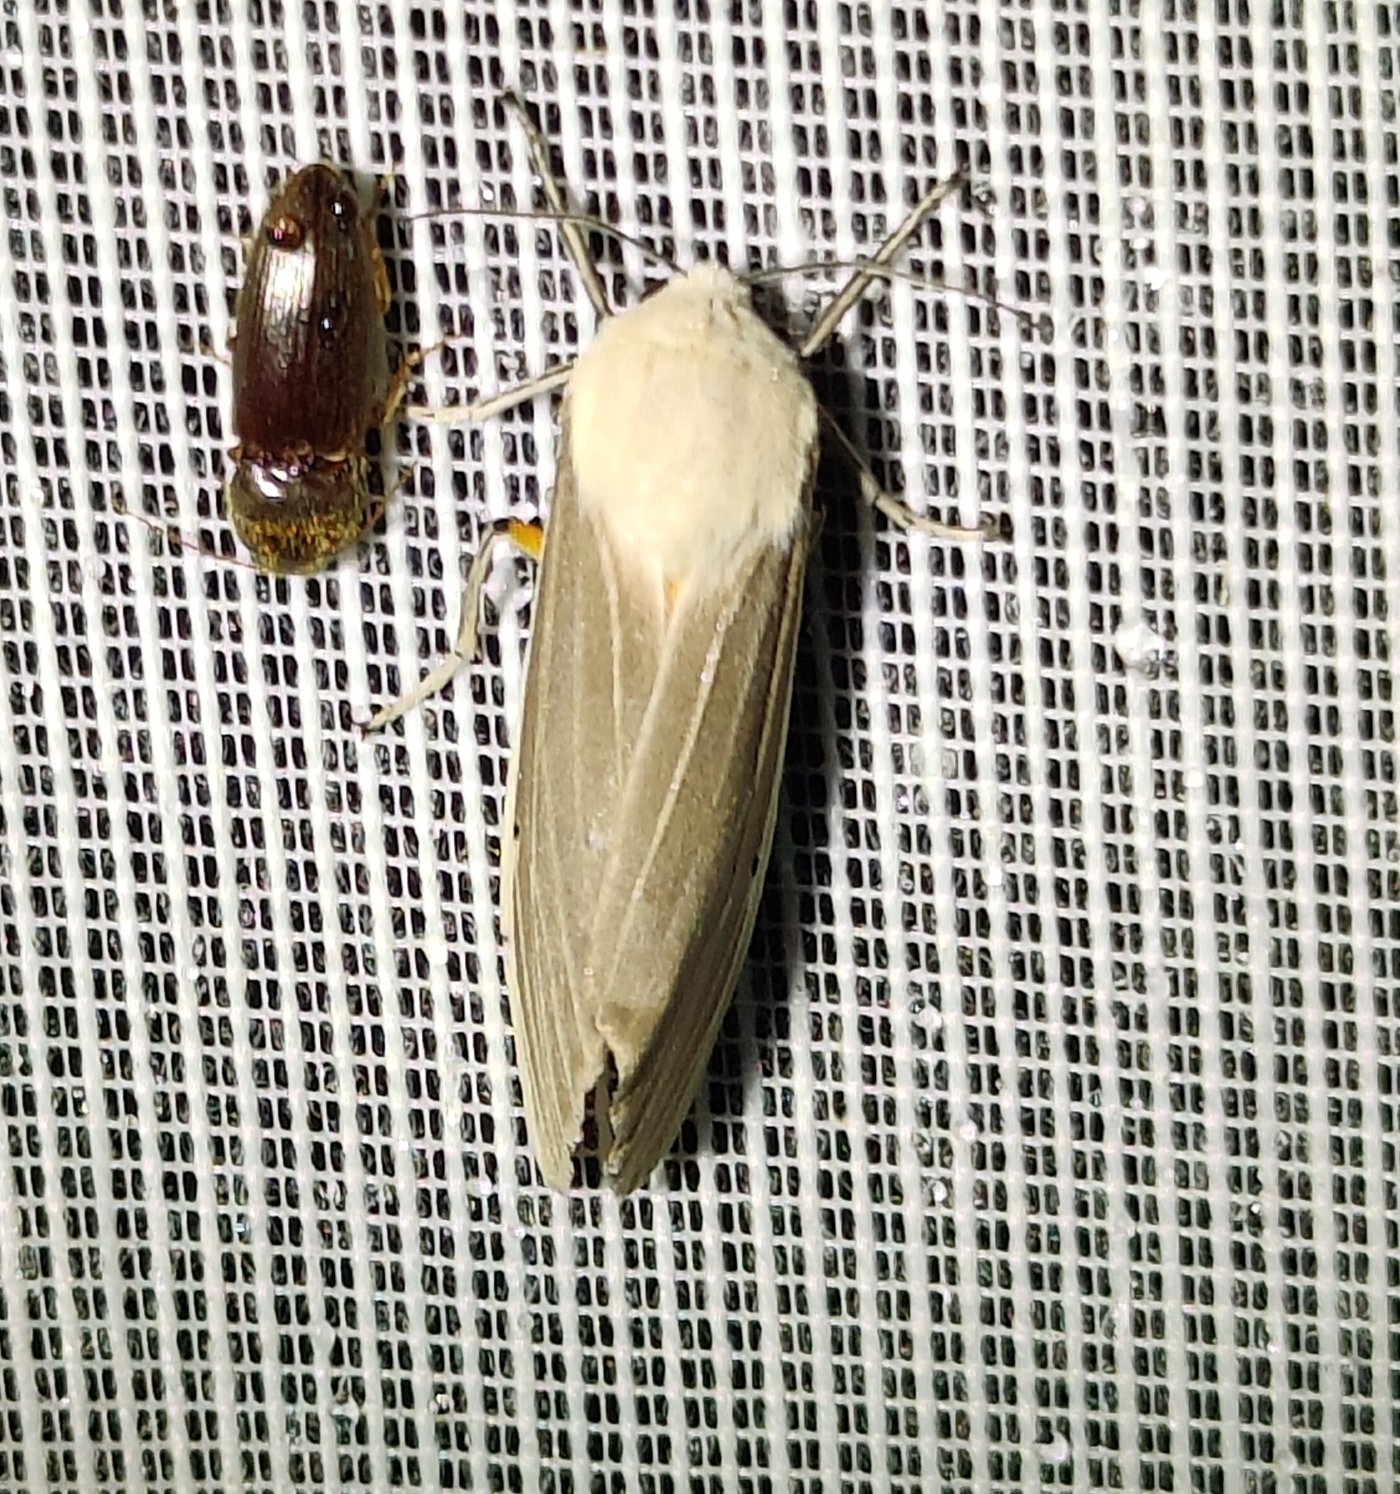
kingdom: Animalia
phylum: Arthropoda
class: Insecta
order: Lepidoptera
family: Erebidae
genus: Creatonotos
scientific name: Creatonotos transiens
